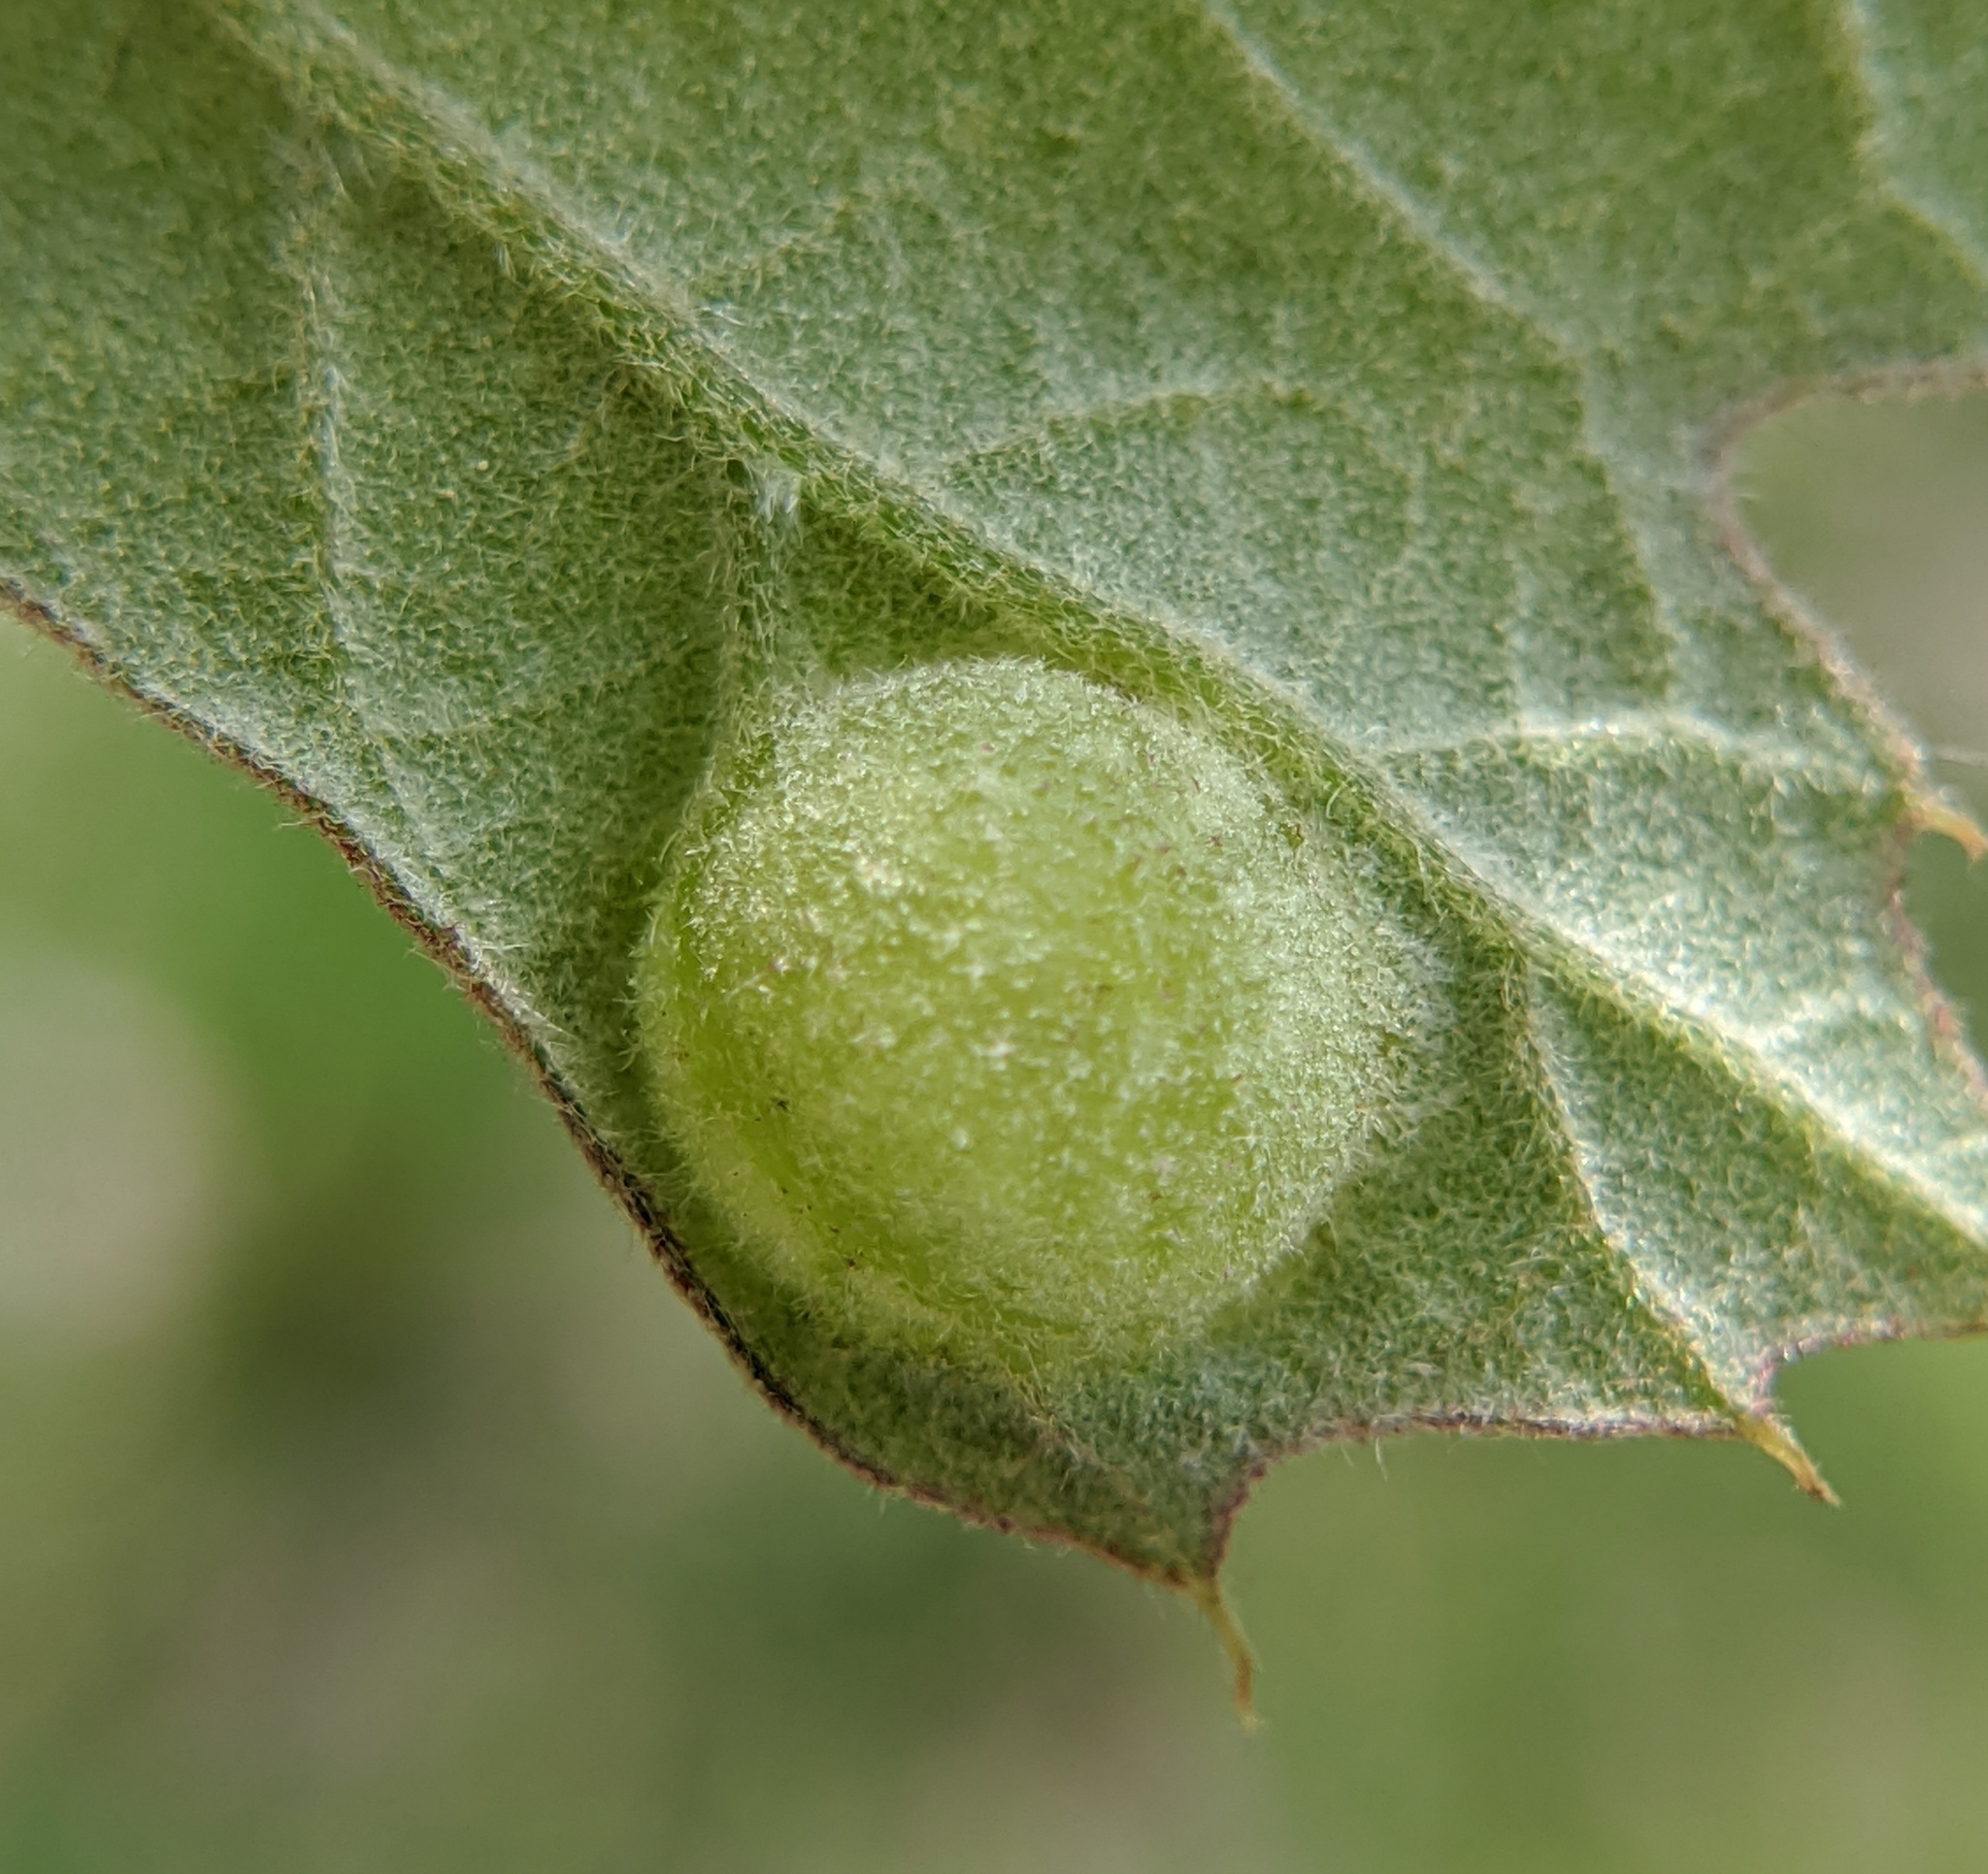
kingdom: Animalia
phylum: Arthropoda
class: Insecta
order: Hymenoptera
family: Cynipidae
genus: Dryocosmus
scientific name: Dryocosmus quercuspalustris
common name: Succulent oak gall wasp
